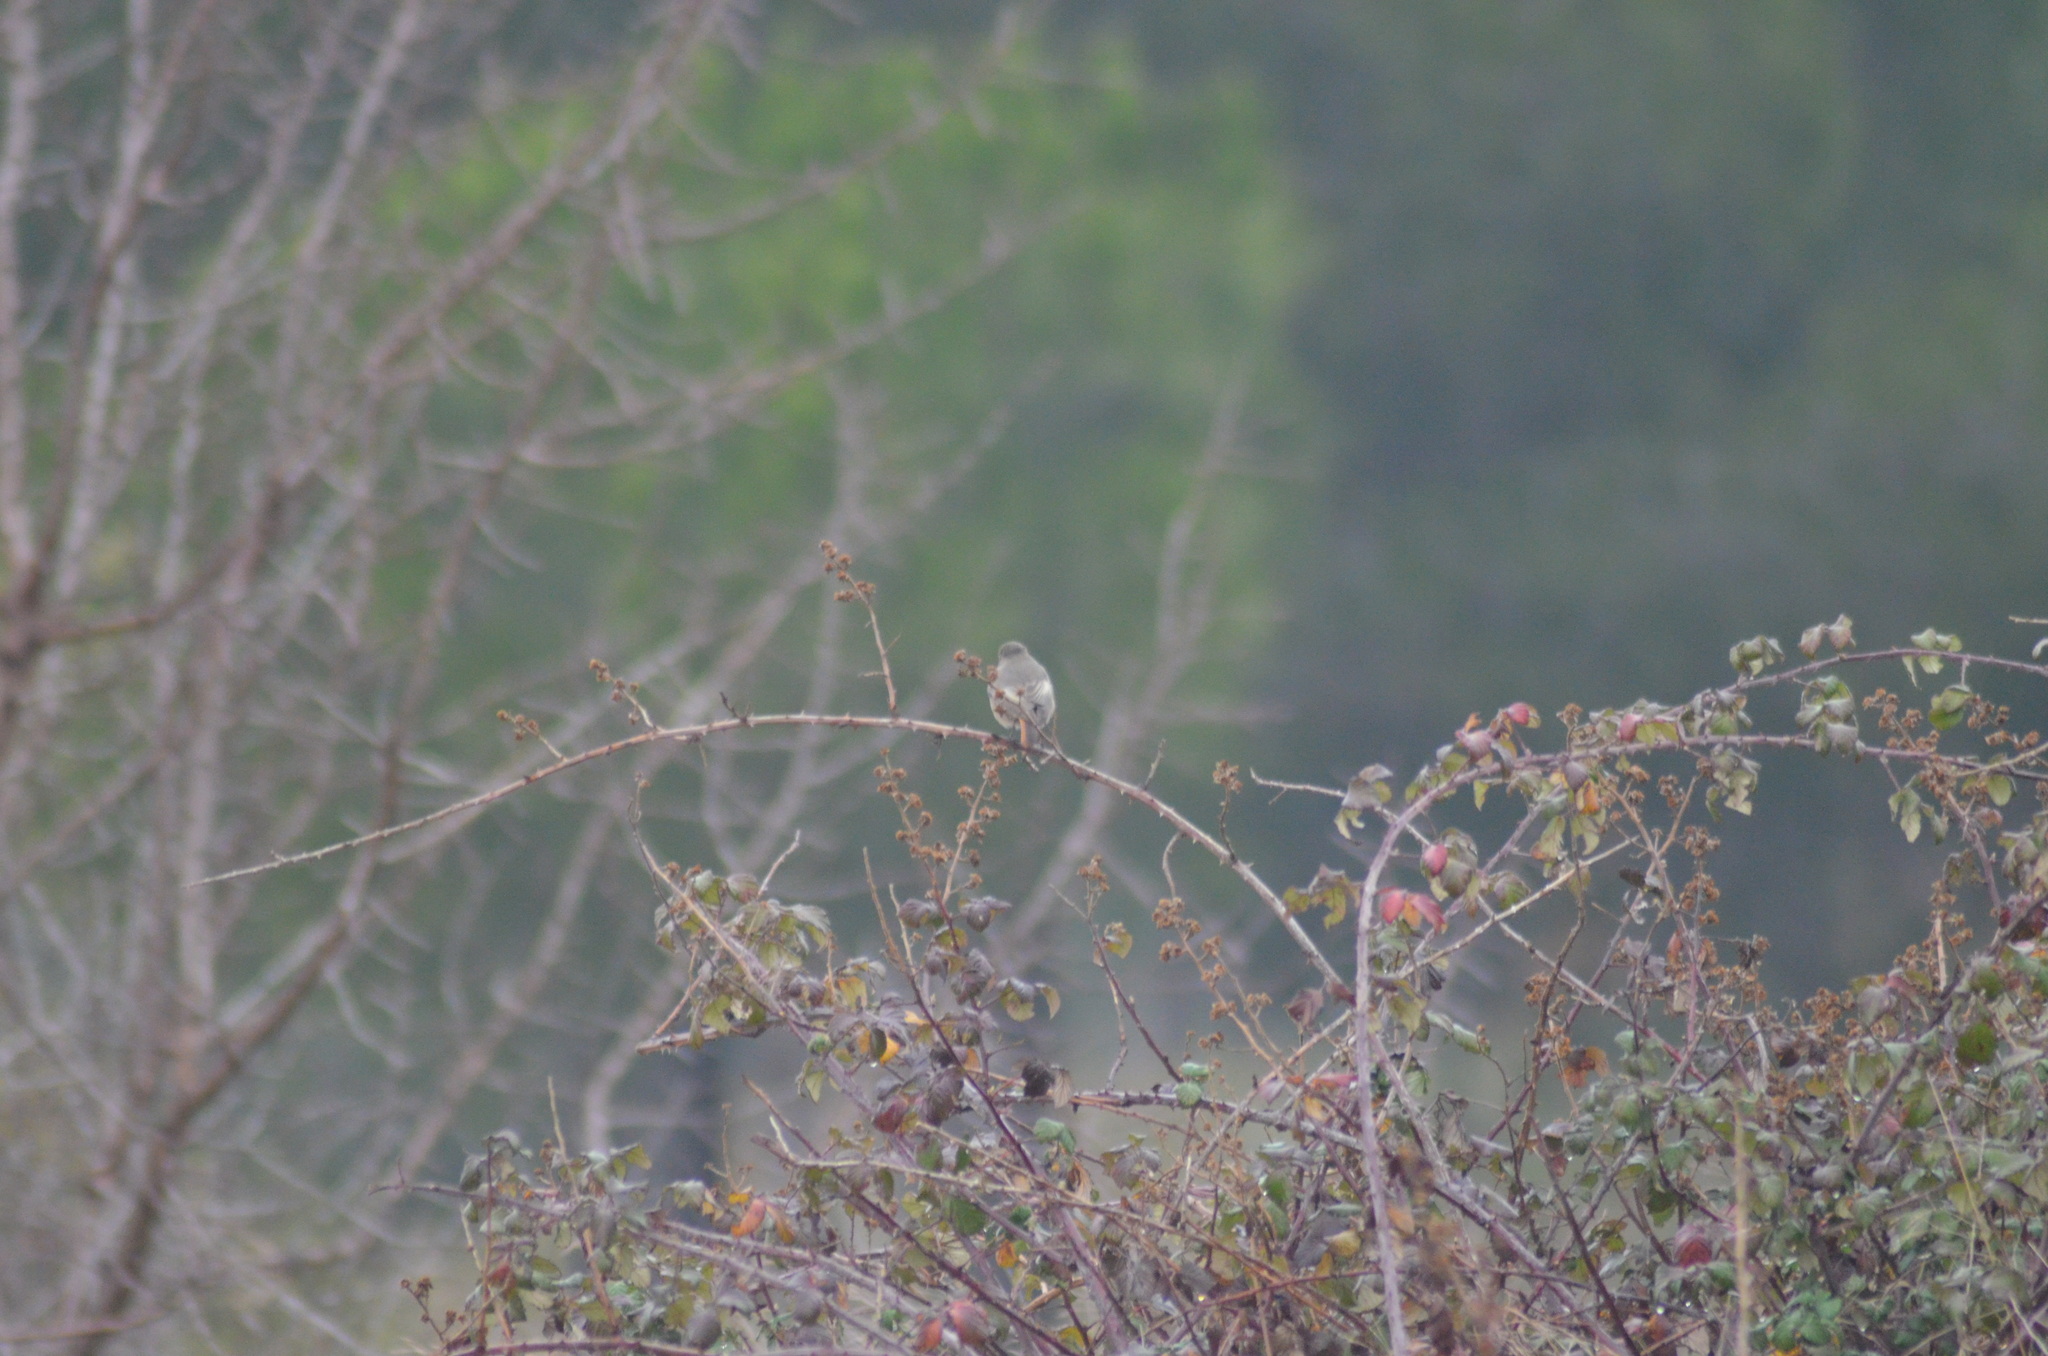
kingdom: Animalia
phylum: Chordata
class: Aves
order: Passeriformes
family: Muscicapidae
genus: Phoenicurus
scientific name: Phoenicurus ochruros
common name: Black redstart
